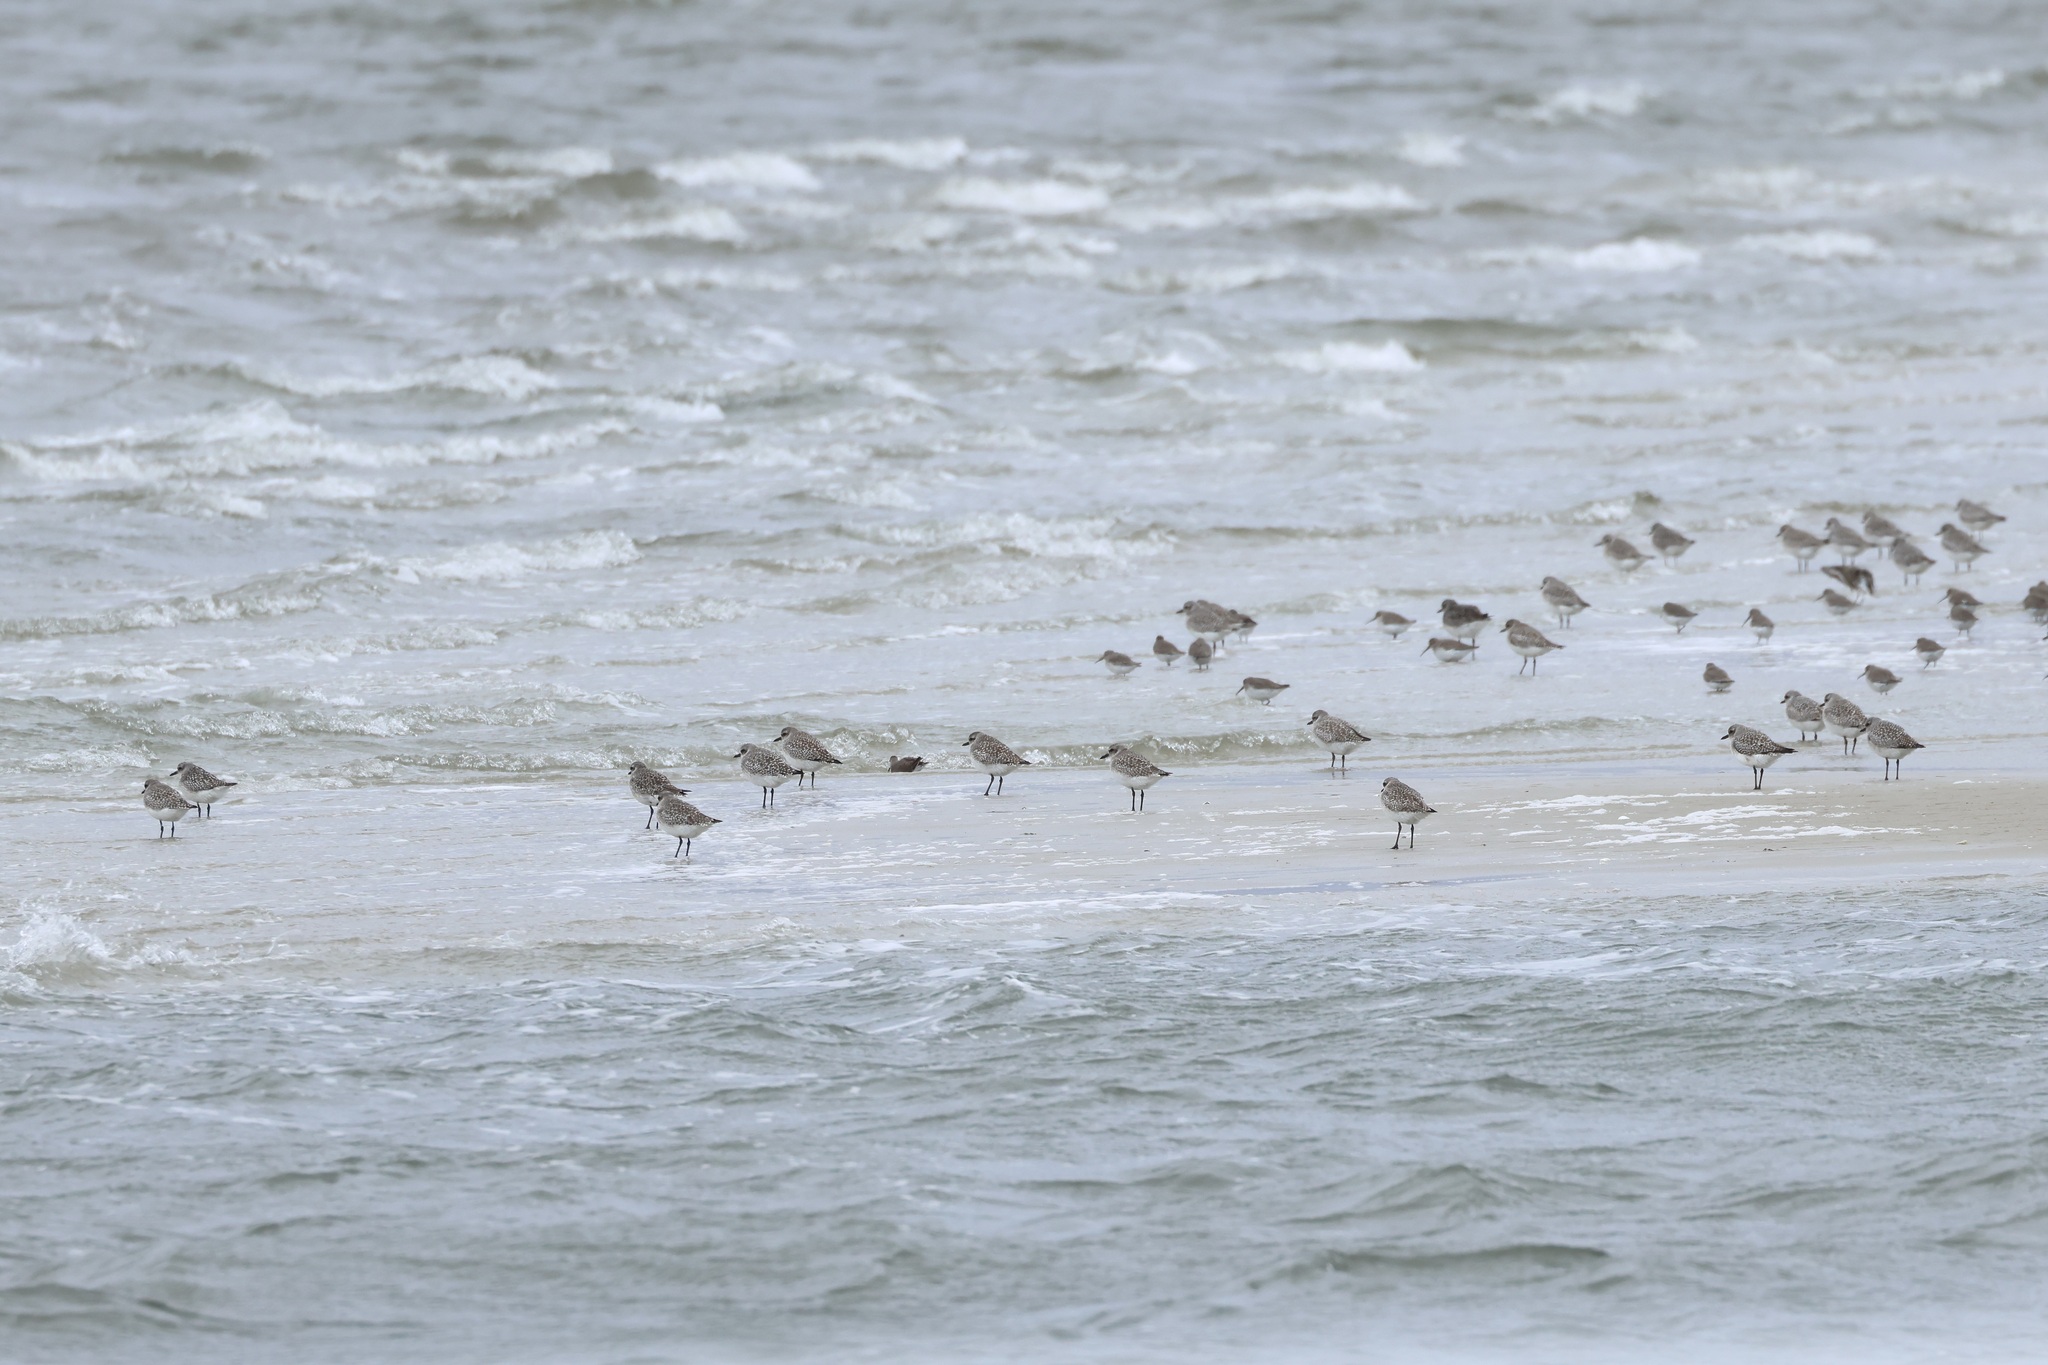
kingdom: Animalia
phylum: Chordata
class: Aves
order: Charadriiformes
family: Charadriidae
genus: Pluvialis
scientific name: Pluvialis squatarola
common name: Grey plover
